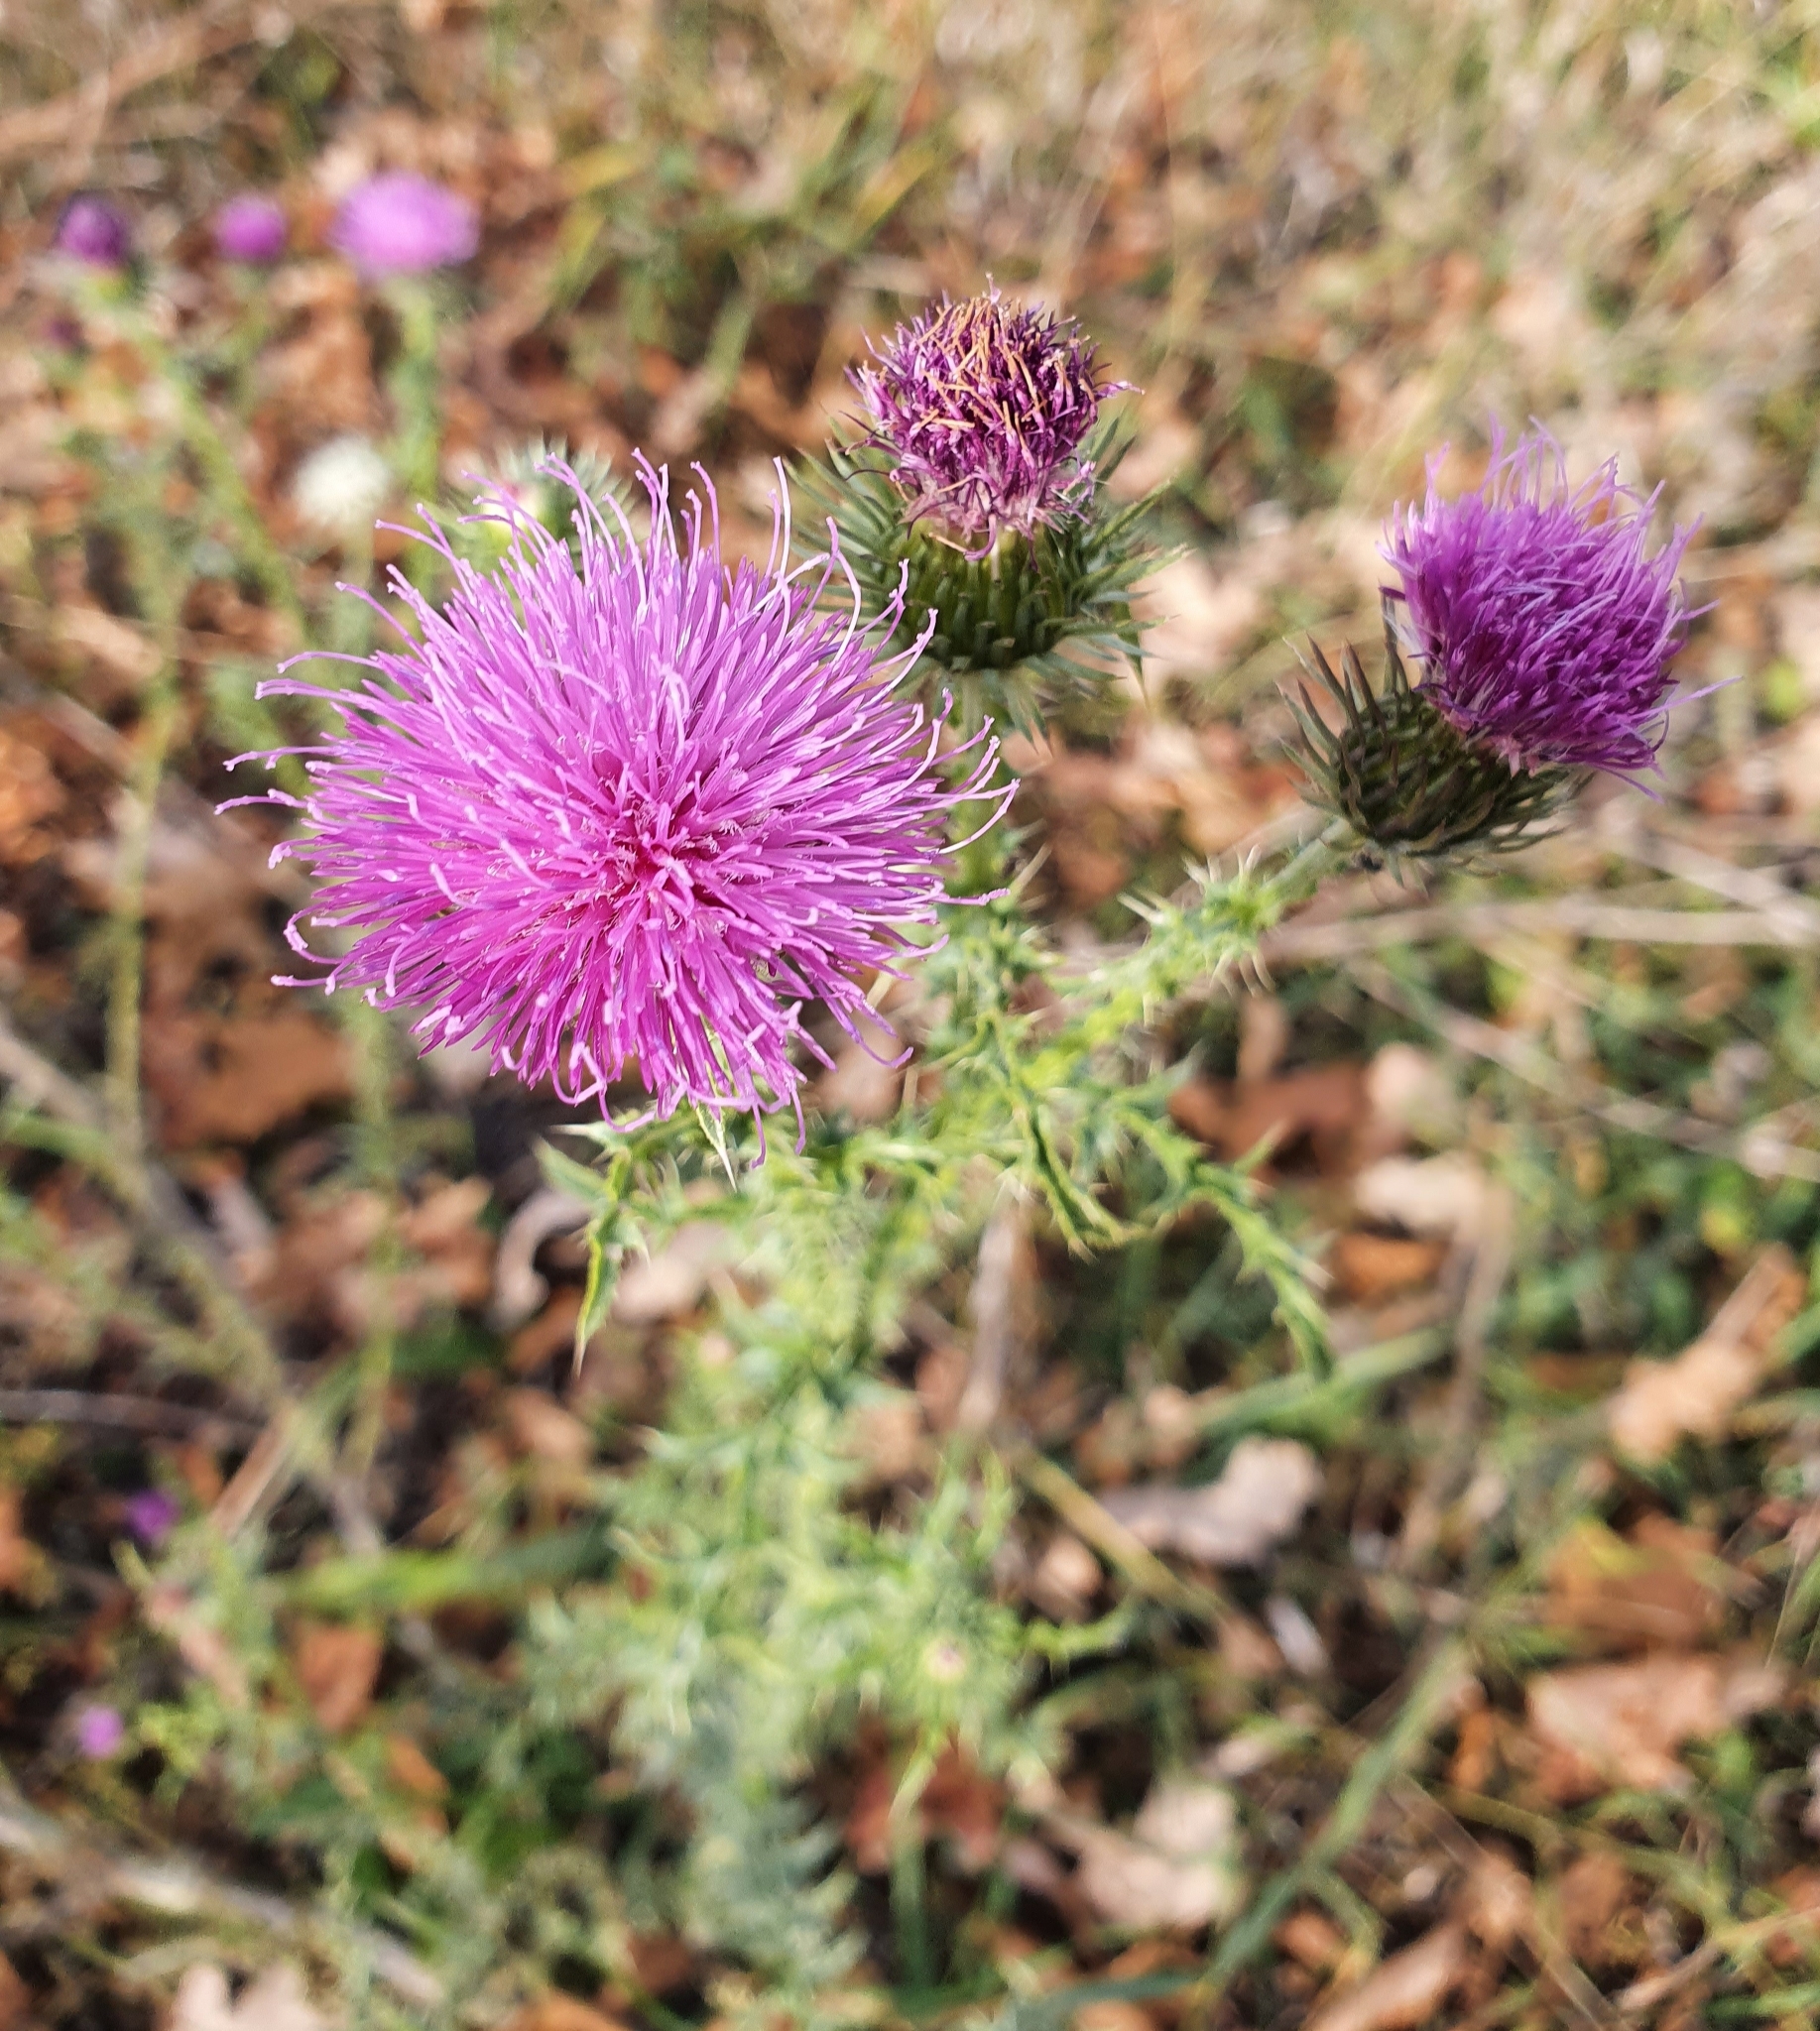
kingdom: Plantae
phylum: Tracheophyta
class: Magnoliopsida
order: Asterales
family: Asteraceae
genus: Carduus
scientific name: Carduus acanthoides
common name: Plumeless thistle
